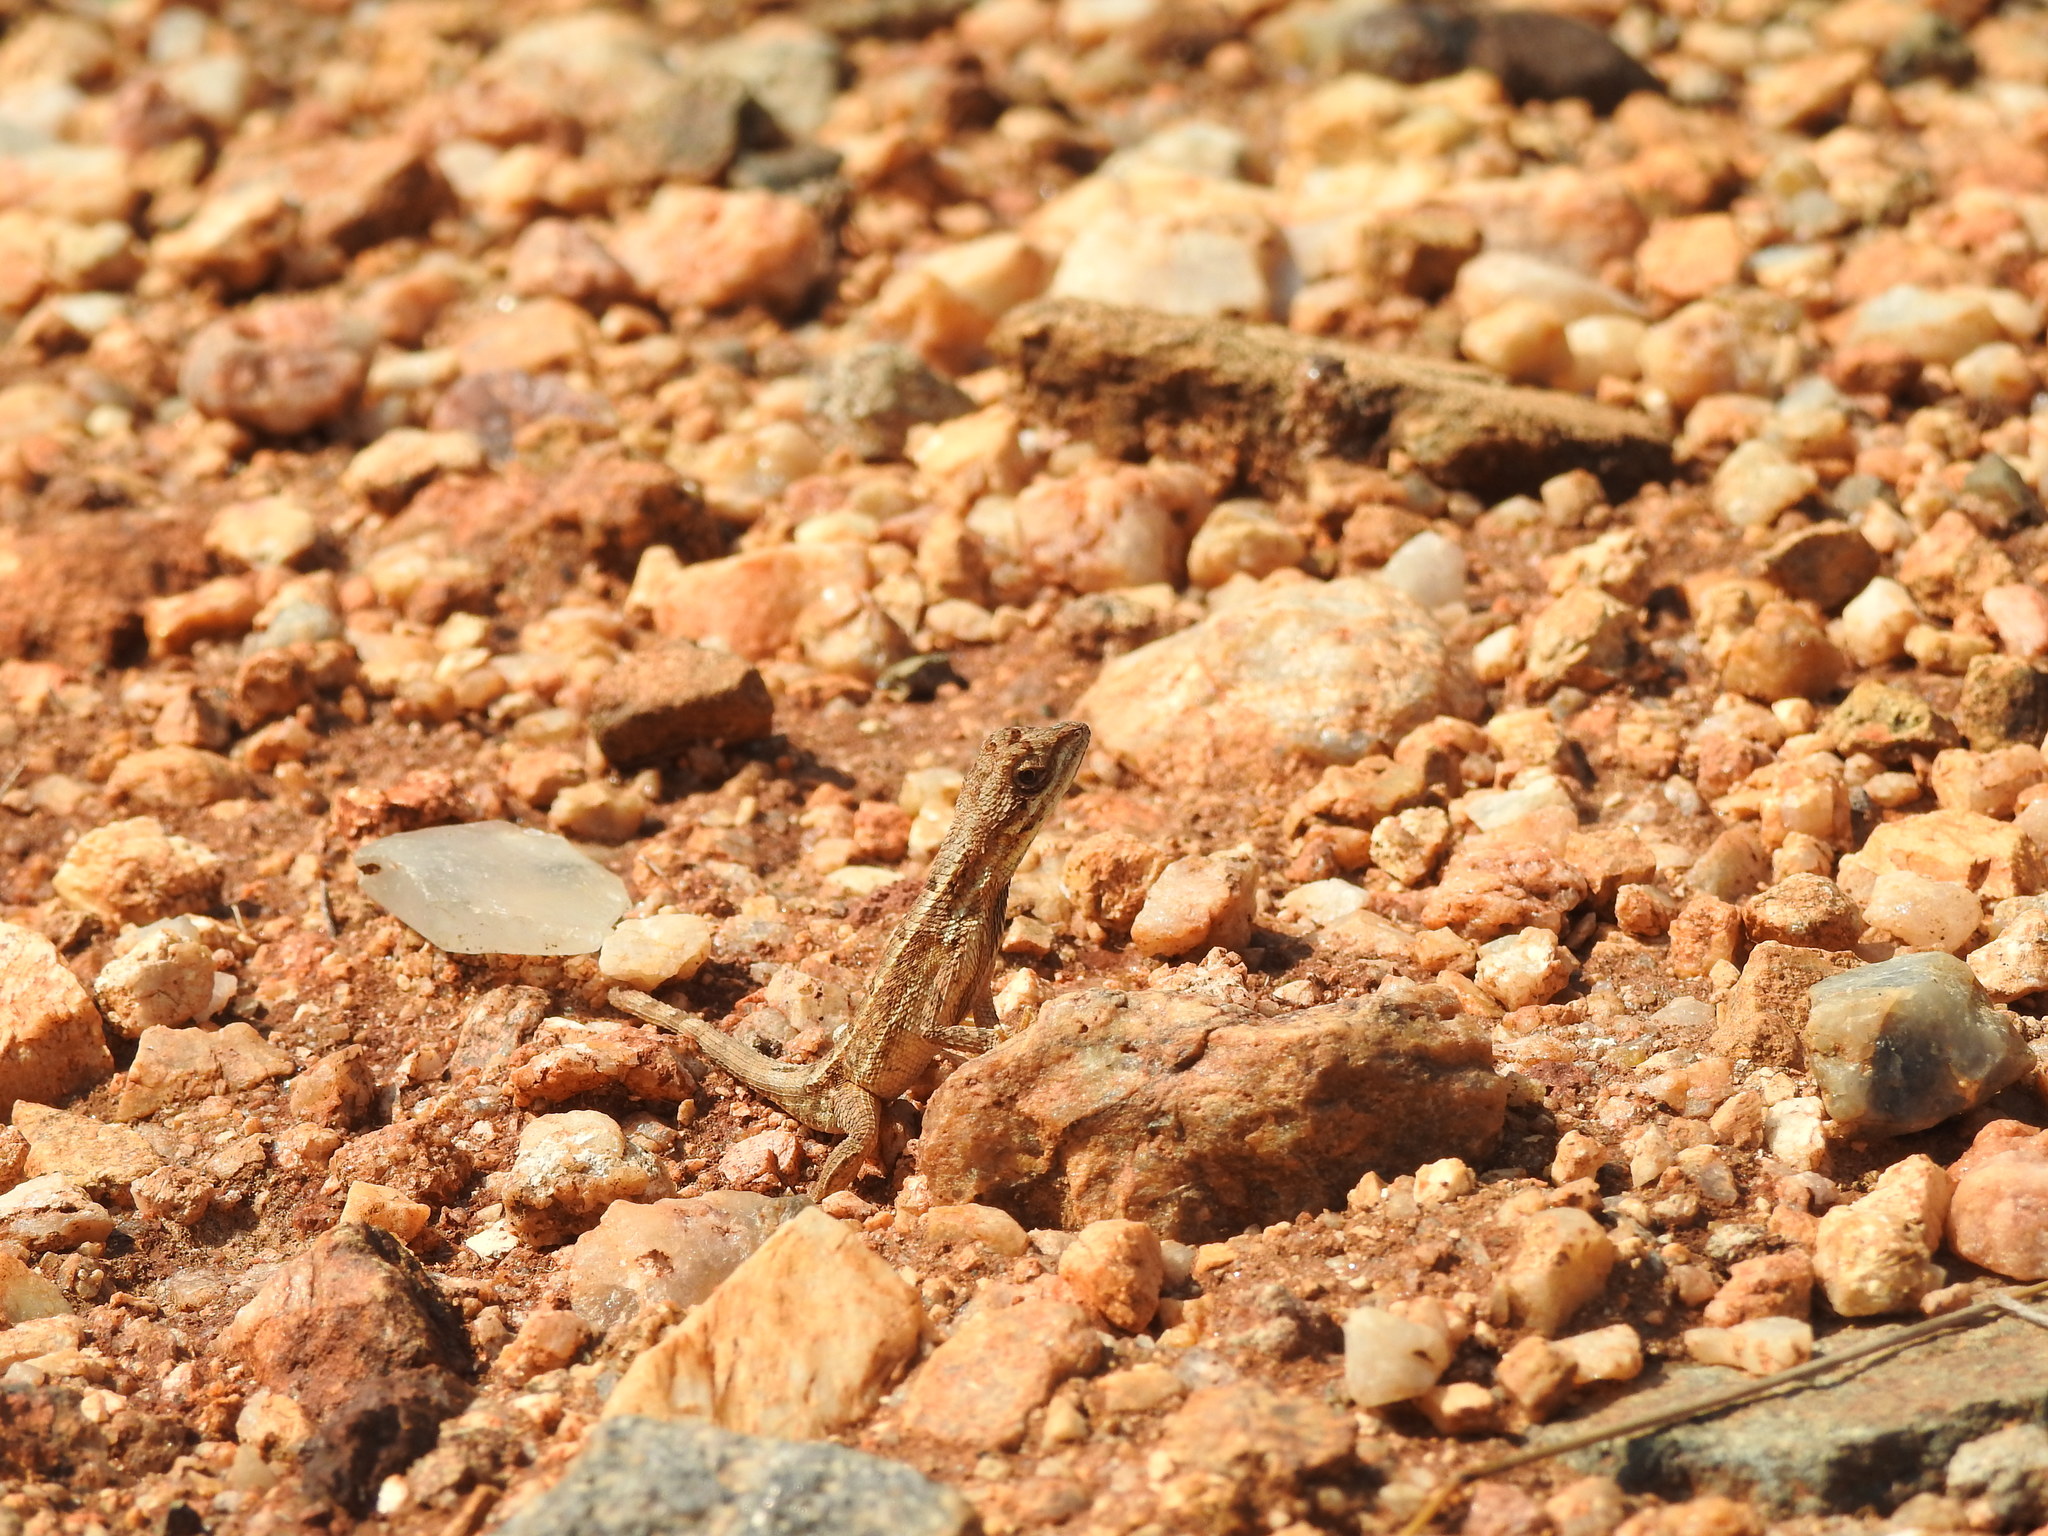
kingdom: Animalia
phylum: Chordata
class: Squamata
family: Agamidae
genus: Sitana
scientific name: Sitana ponticeriana
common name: Pondichéry fan throated lizard
